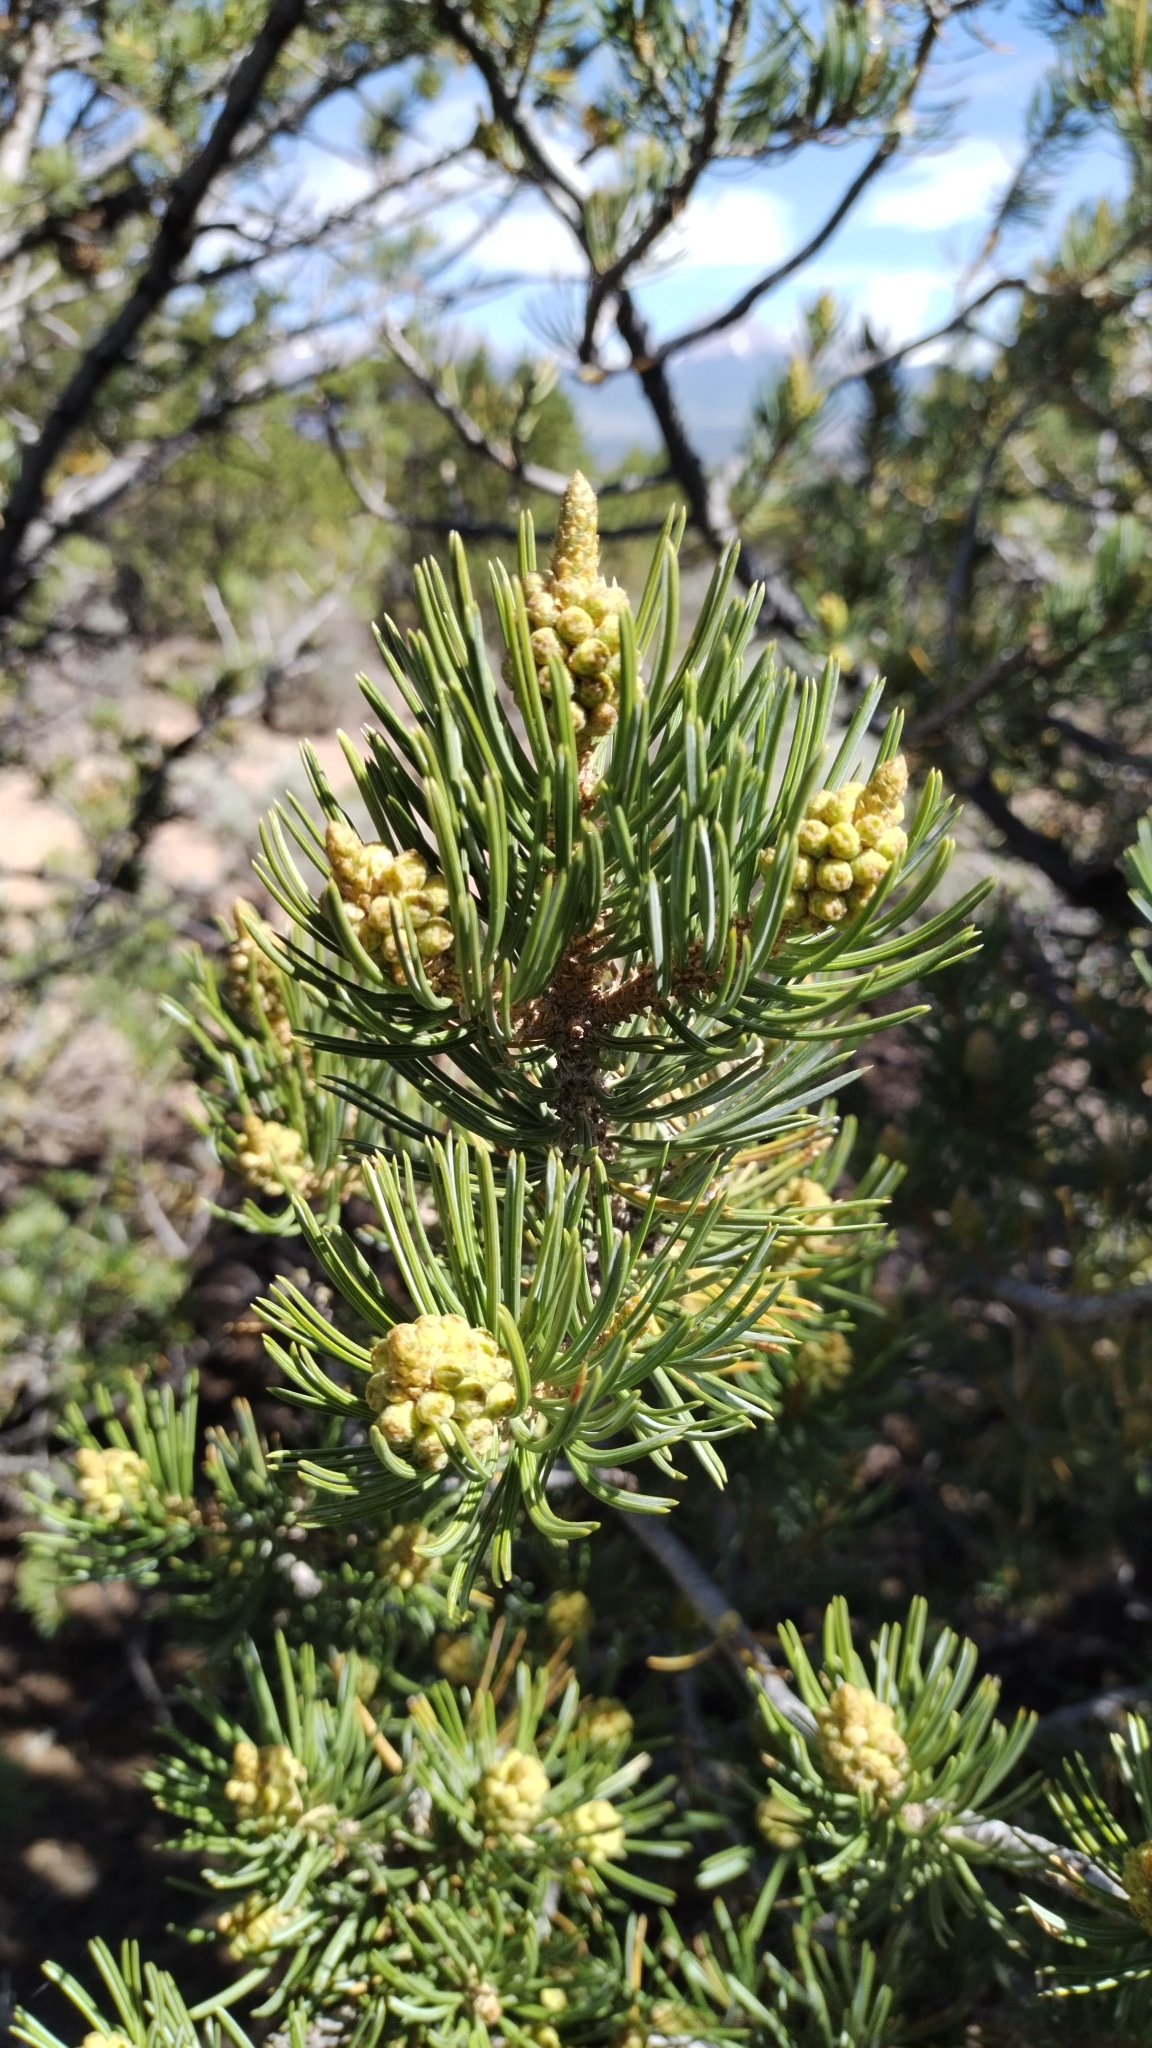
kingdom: Plantae
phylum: Tracheophyta
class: Pinopsida
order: Pinales
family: Pinaceae
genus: Pinus
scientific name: Pinus edulis
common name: Colorado pinyon
